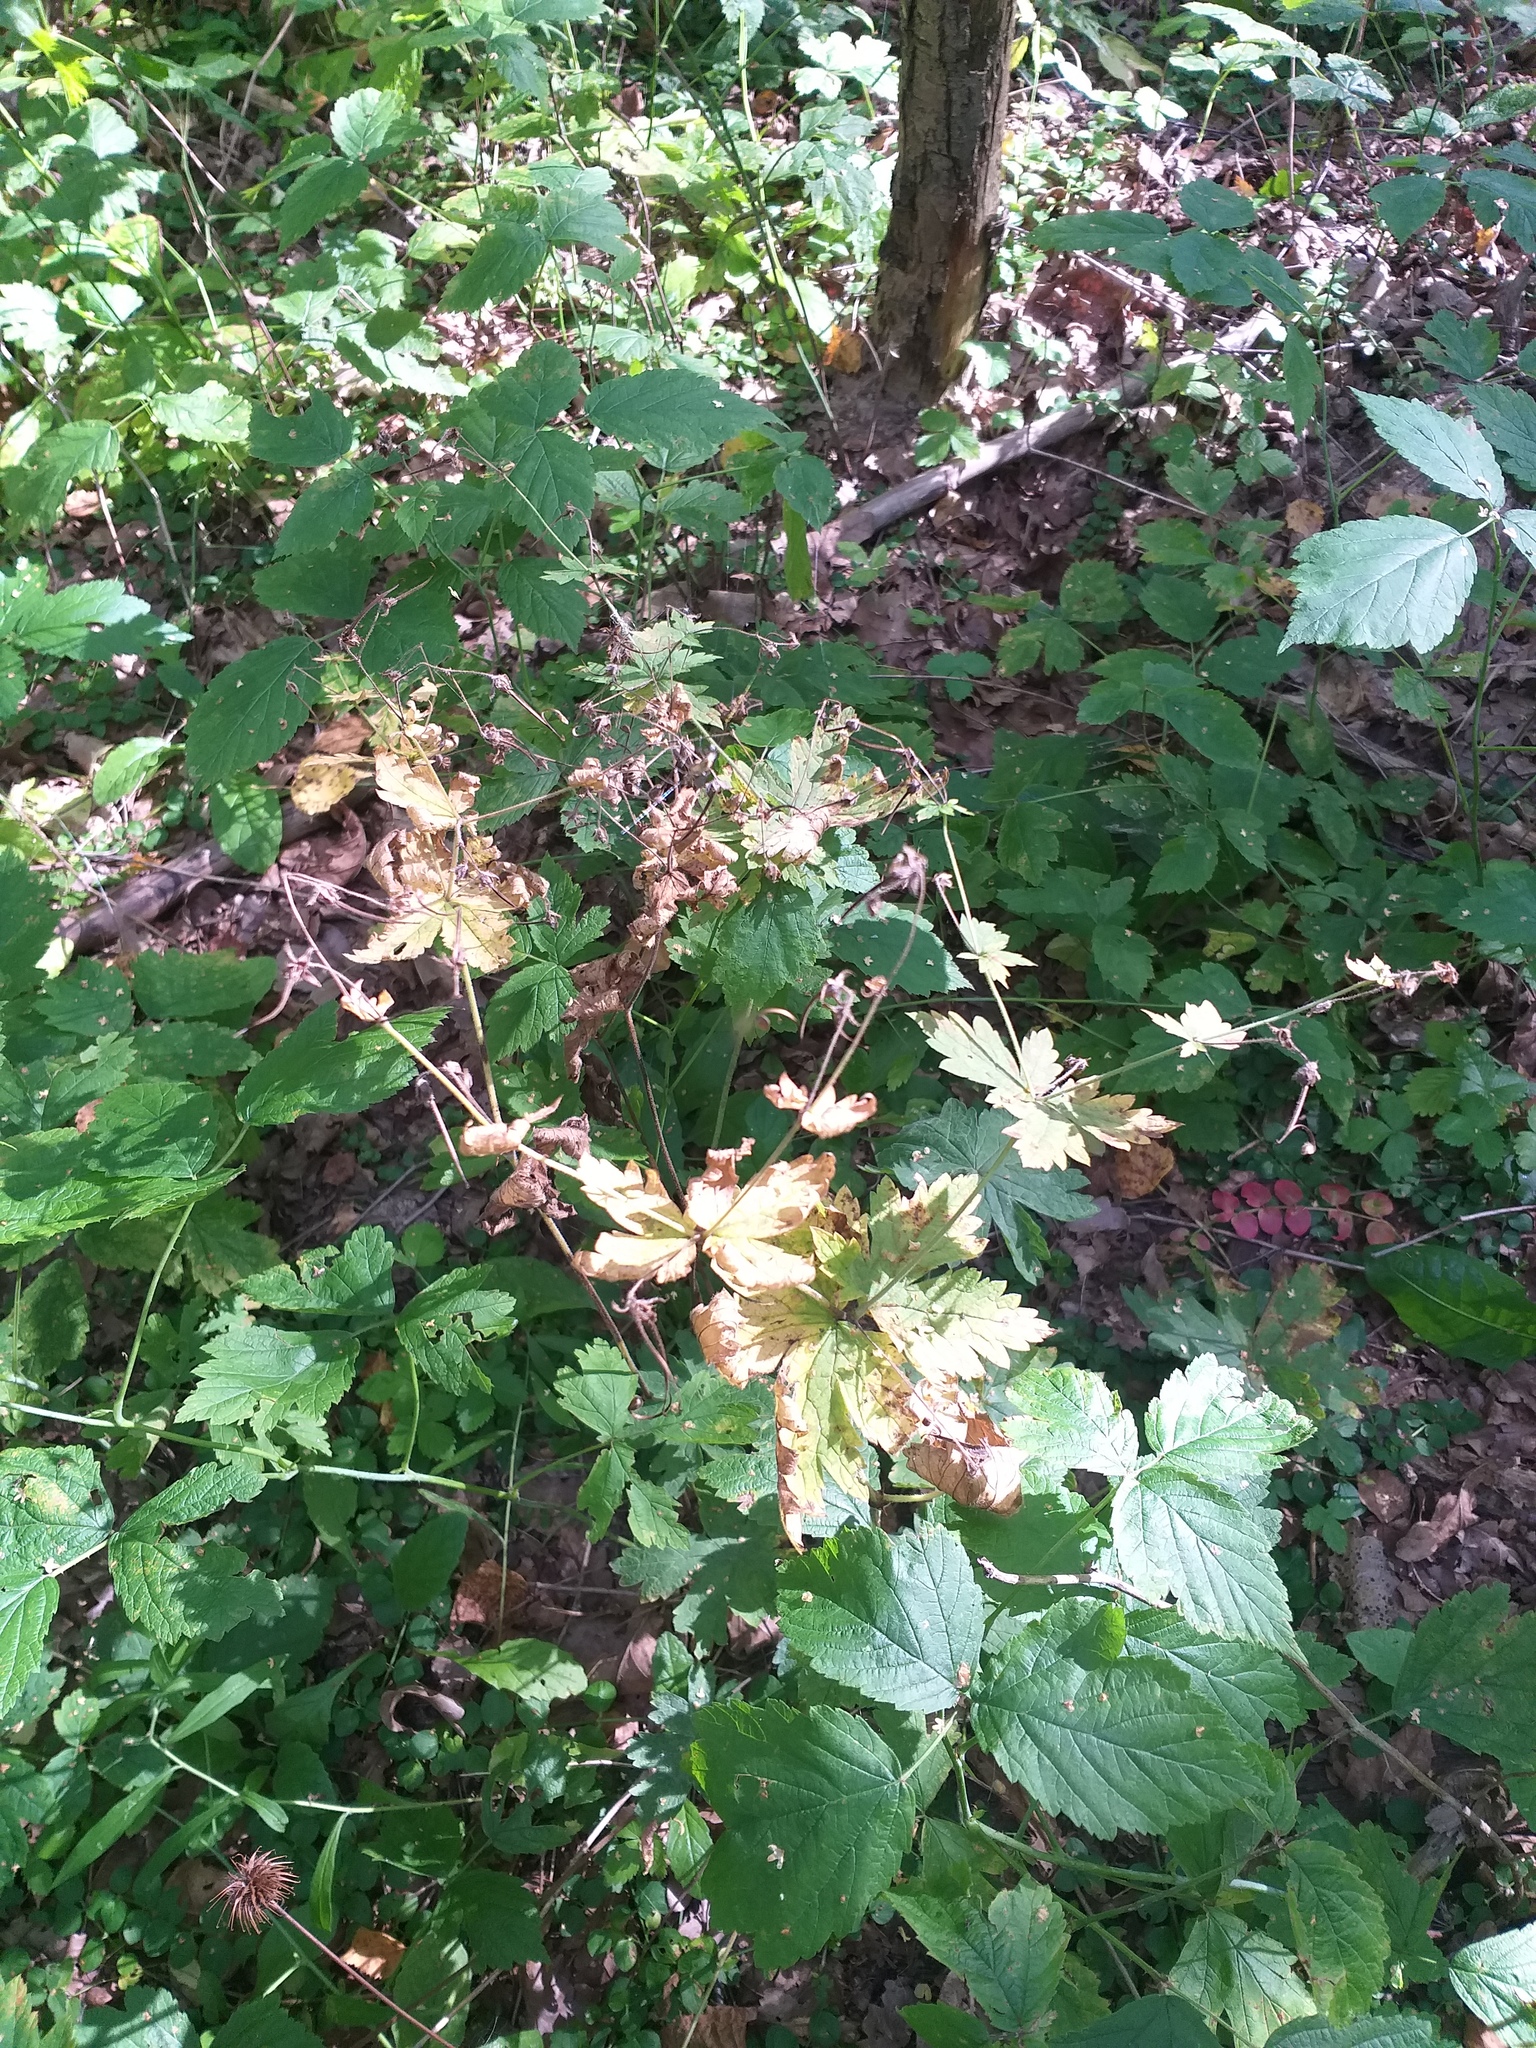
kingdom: Plantae
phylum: Tracheophyta
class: Magnoliopsida
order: Geraniales
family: Geraniaceae
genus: Geranium
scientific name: Geranium sylvaticum
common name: Wood crane's-bill
